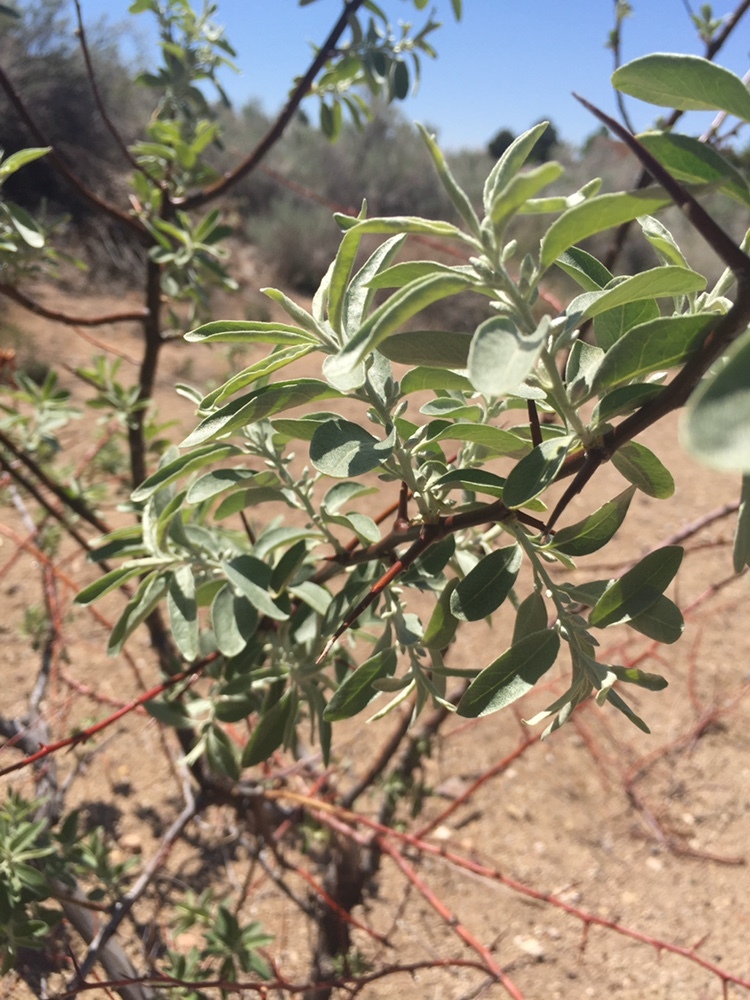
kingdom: Plantae
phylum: Tracheophyta
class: Magnoliopsida
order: Rosales
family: Elaeagnaceae
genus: Elaeagnus
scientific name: Elaeagnus angustifolia
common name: Russian olive
